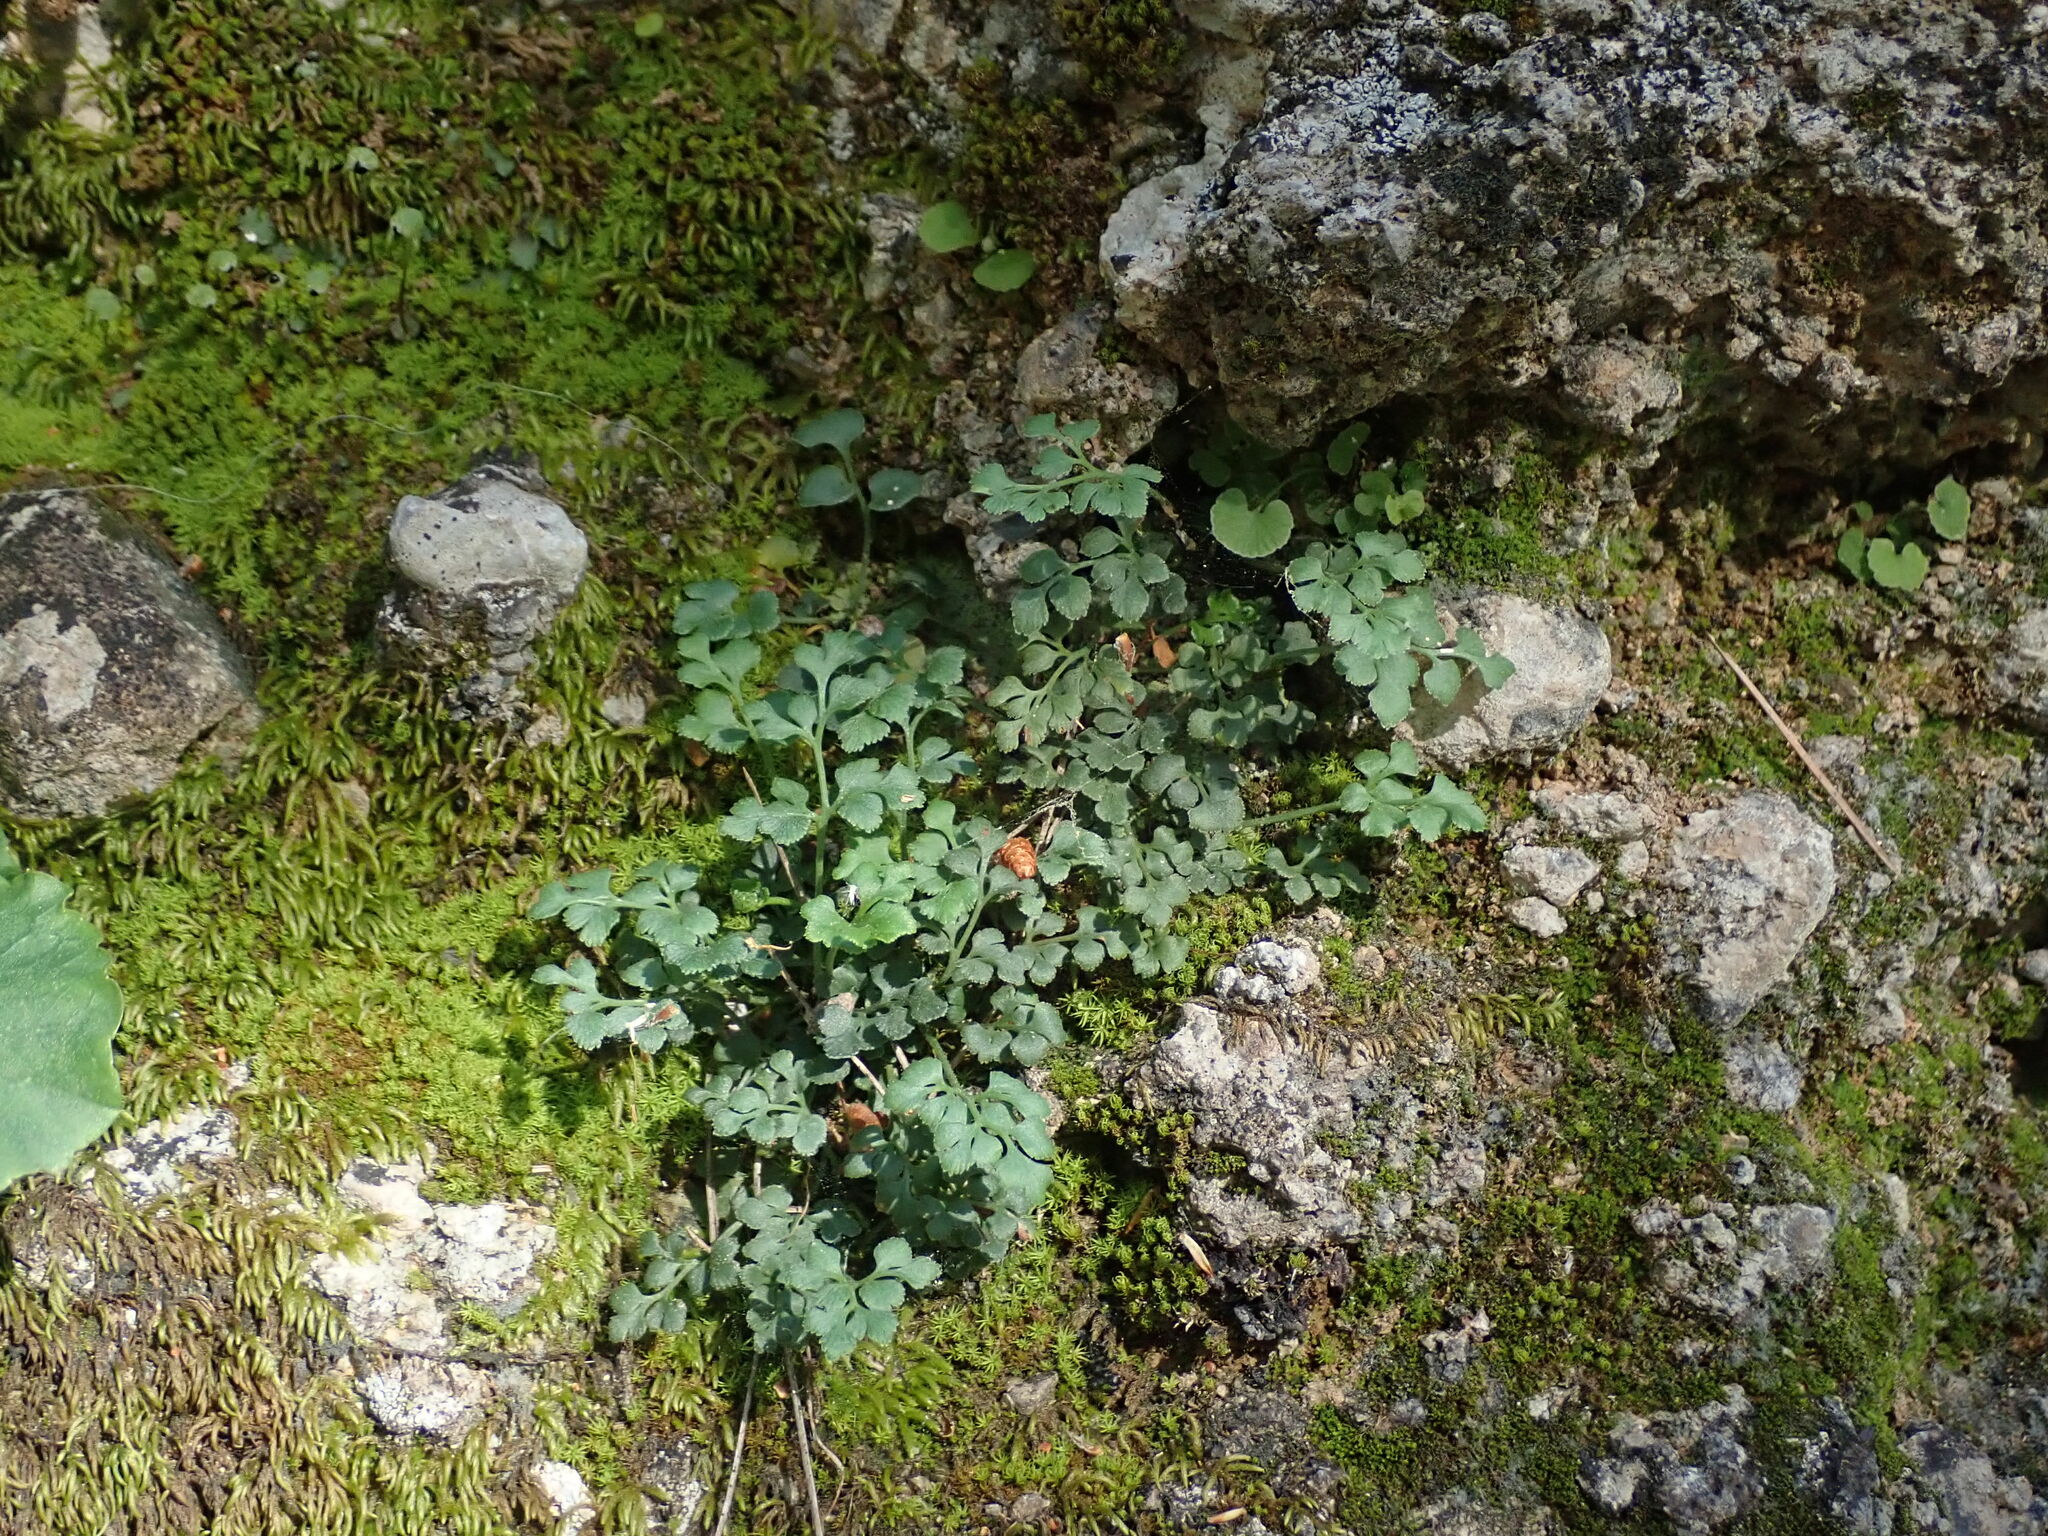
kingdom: Plantae
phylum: Tracheophyta
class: Polypodiopsida
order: Polypodiales
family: Aspleniaceae
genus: Asplenium
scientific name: Asplenium ruta-muraria
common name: Wall-rue
